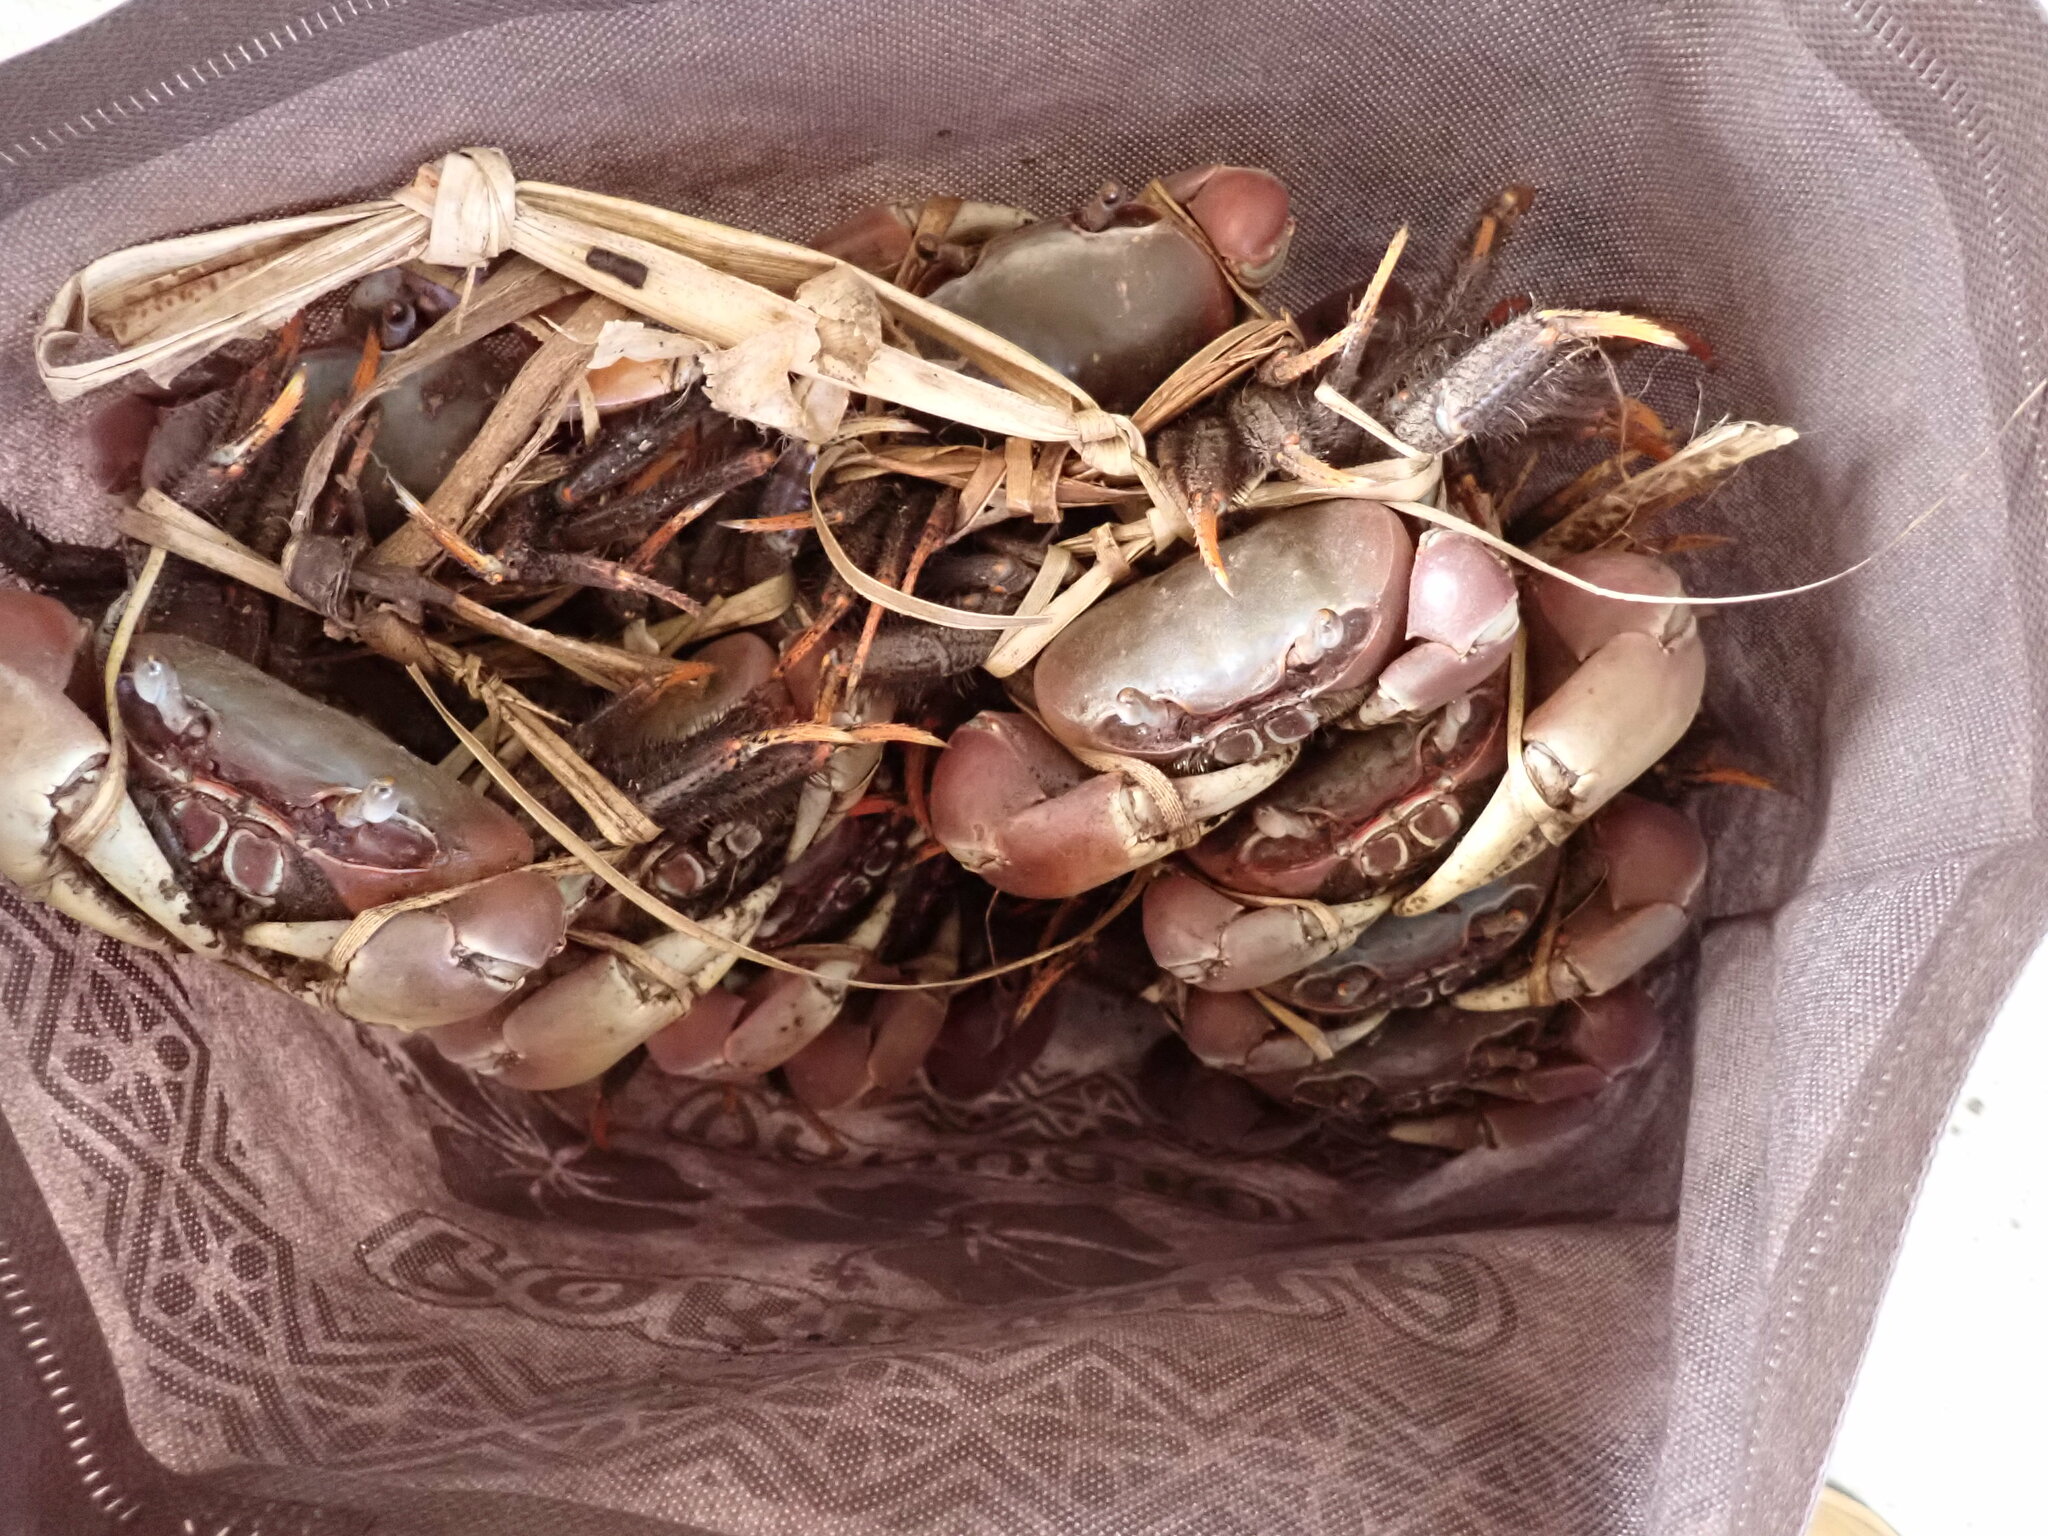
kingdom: Animalia
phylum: Arthropoda
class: Malacostraca
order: Decapoda
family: Gecarcinidae
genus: Cardisoma
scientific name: Cardisoma carnifex
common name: Brown land crab
